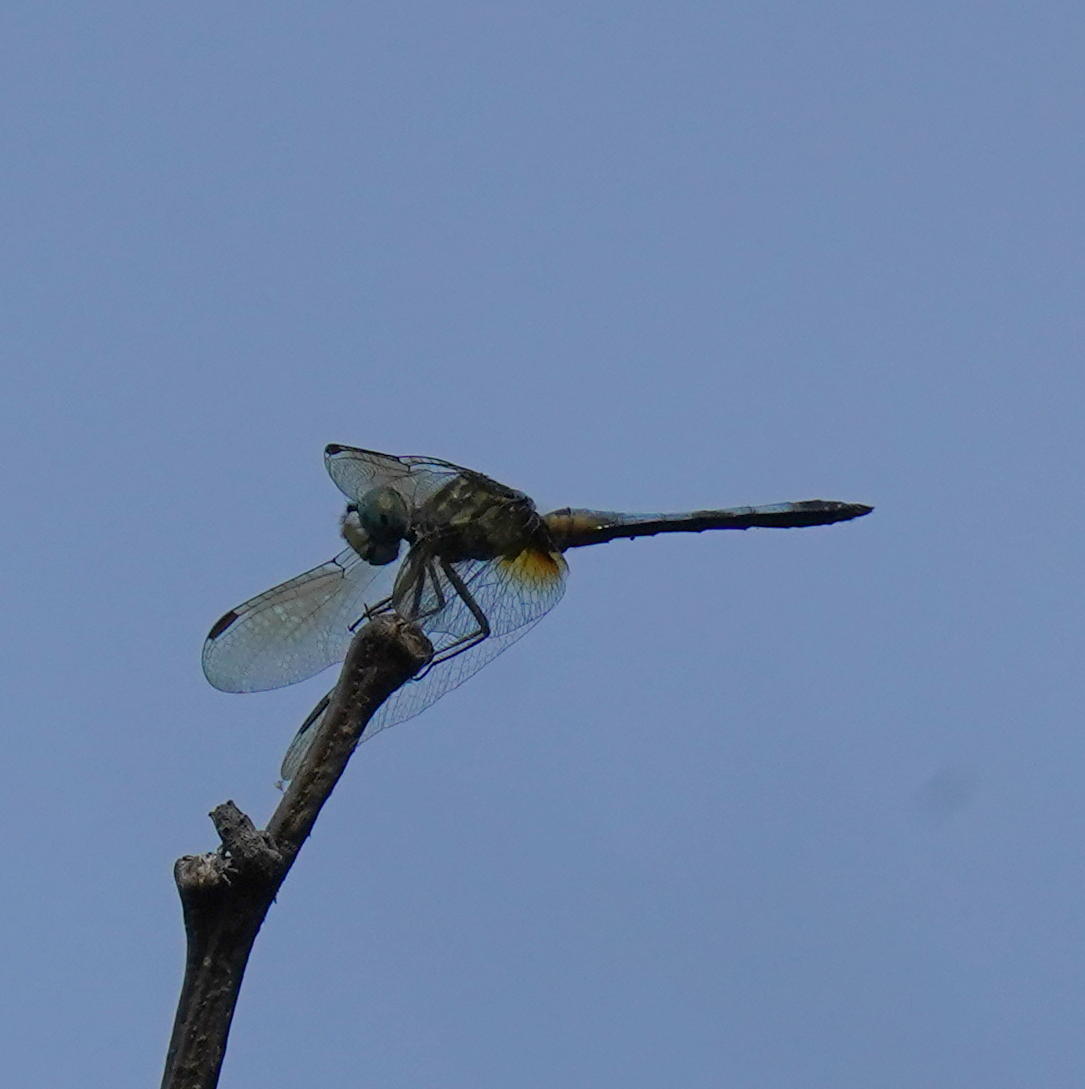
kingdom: Animalia
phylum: Arthropoda
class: Insecta
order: Odonata
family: Libellulidae
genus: Pachydiplax
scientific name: Pachydiplax longipennis
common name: Blue dasher
